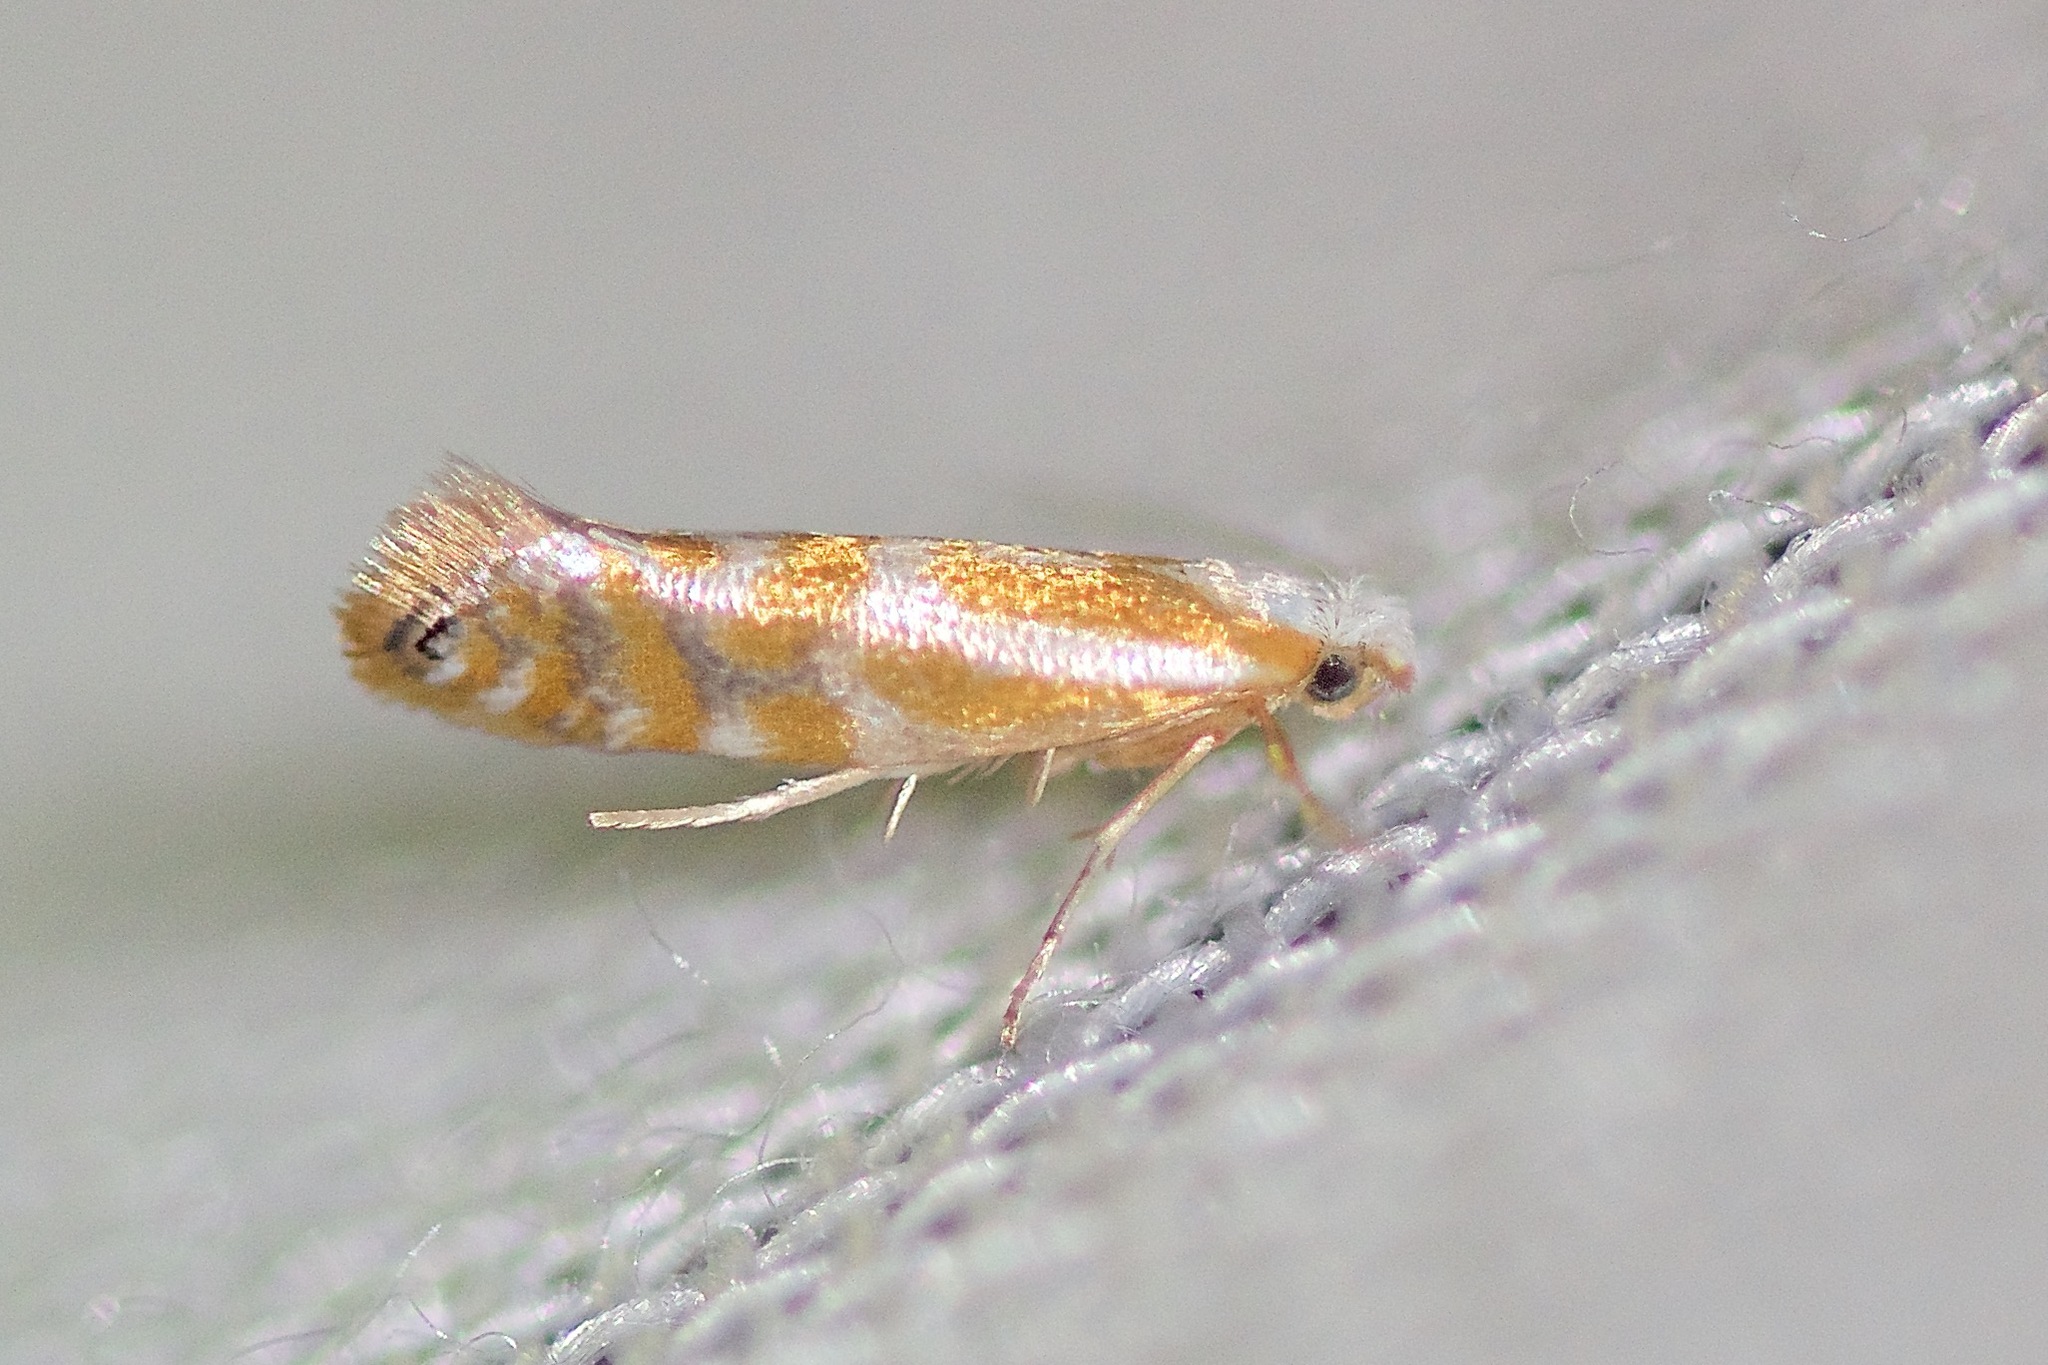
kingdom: Animalia
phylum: Arthropoda
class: Insecta
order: Lepidoptera
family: Argyresthiidae
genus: Argyresthia
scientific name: Argyresthia canadensis
